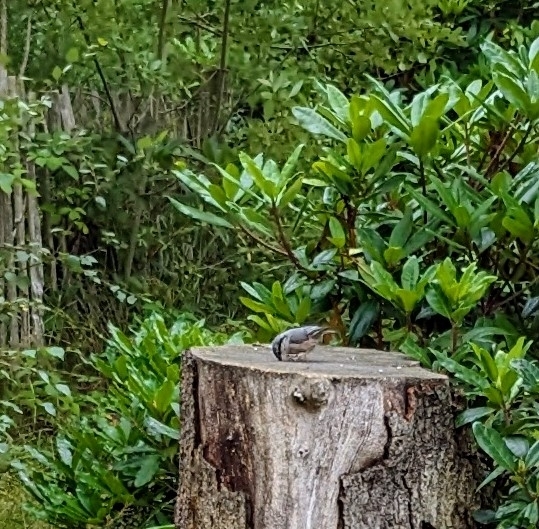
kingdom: Animalia
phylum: Chordata
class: Aves
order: Passeriformes
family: Sittidae
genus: Sitta
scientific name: Sitta europaea
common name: Eurasian nuthatch
